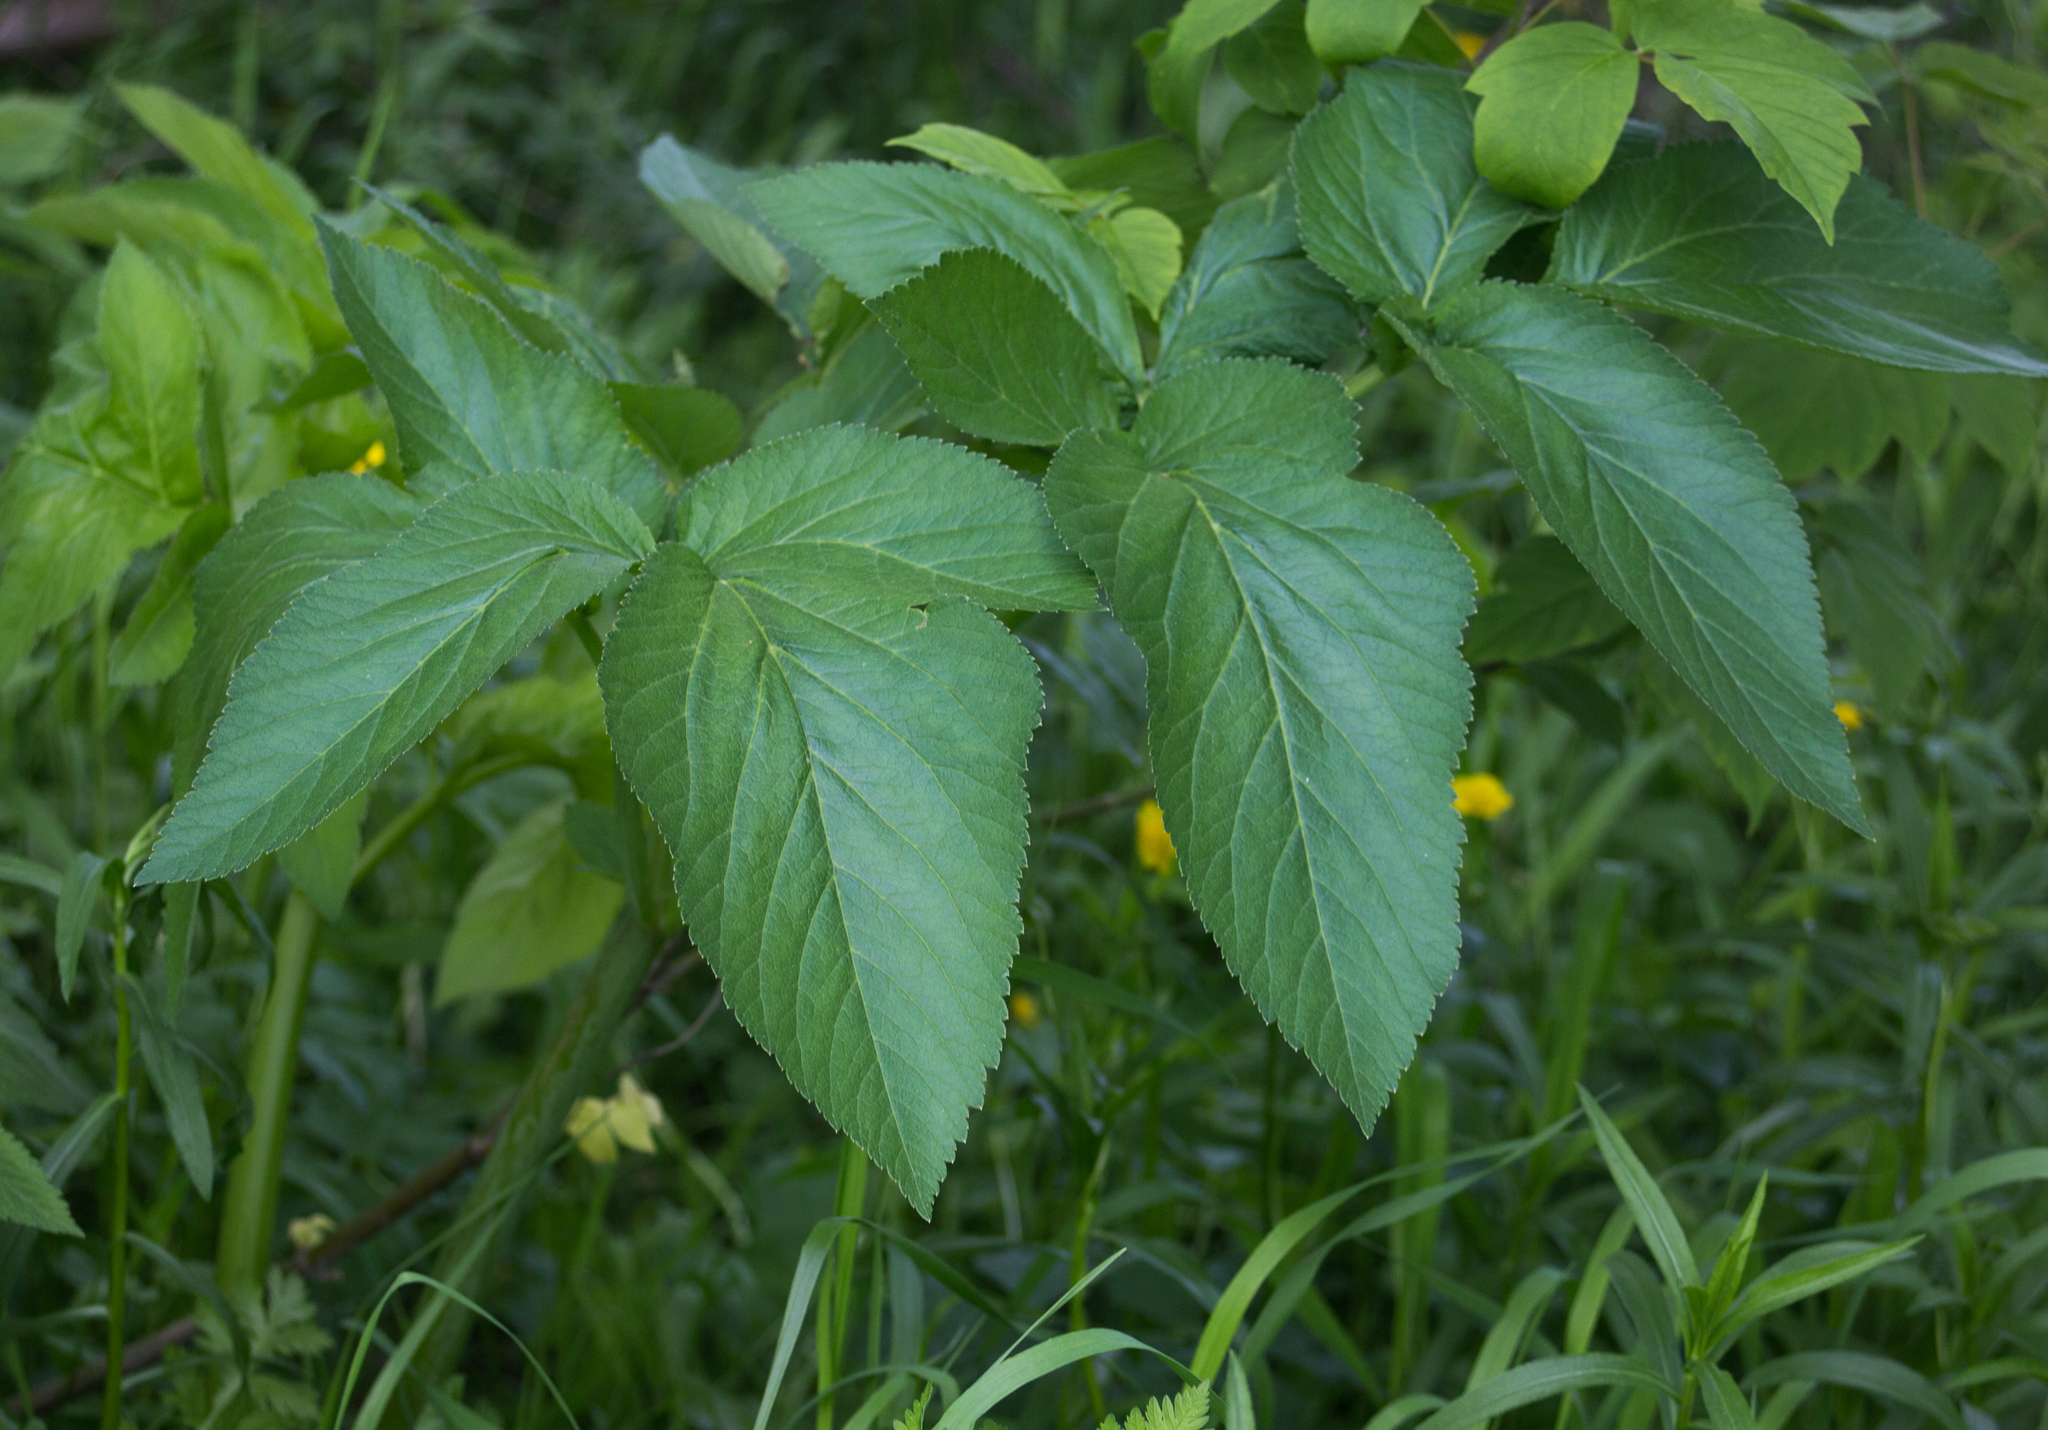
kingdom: Plantae
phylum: Tracheophyta
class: Magnoliopsida
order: Apiales
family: Apiaceae
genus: Angelica
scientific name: Angelica archangelica
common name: Garden angelica
